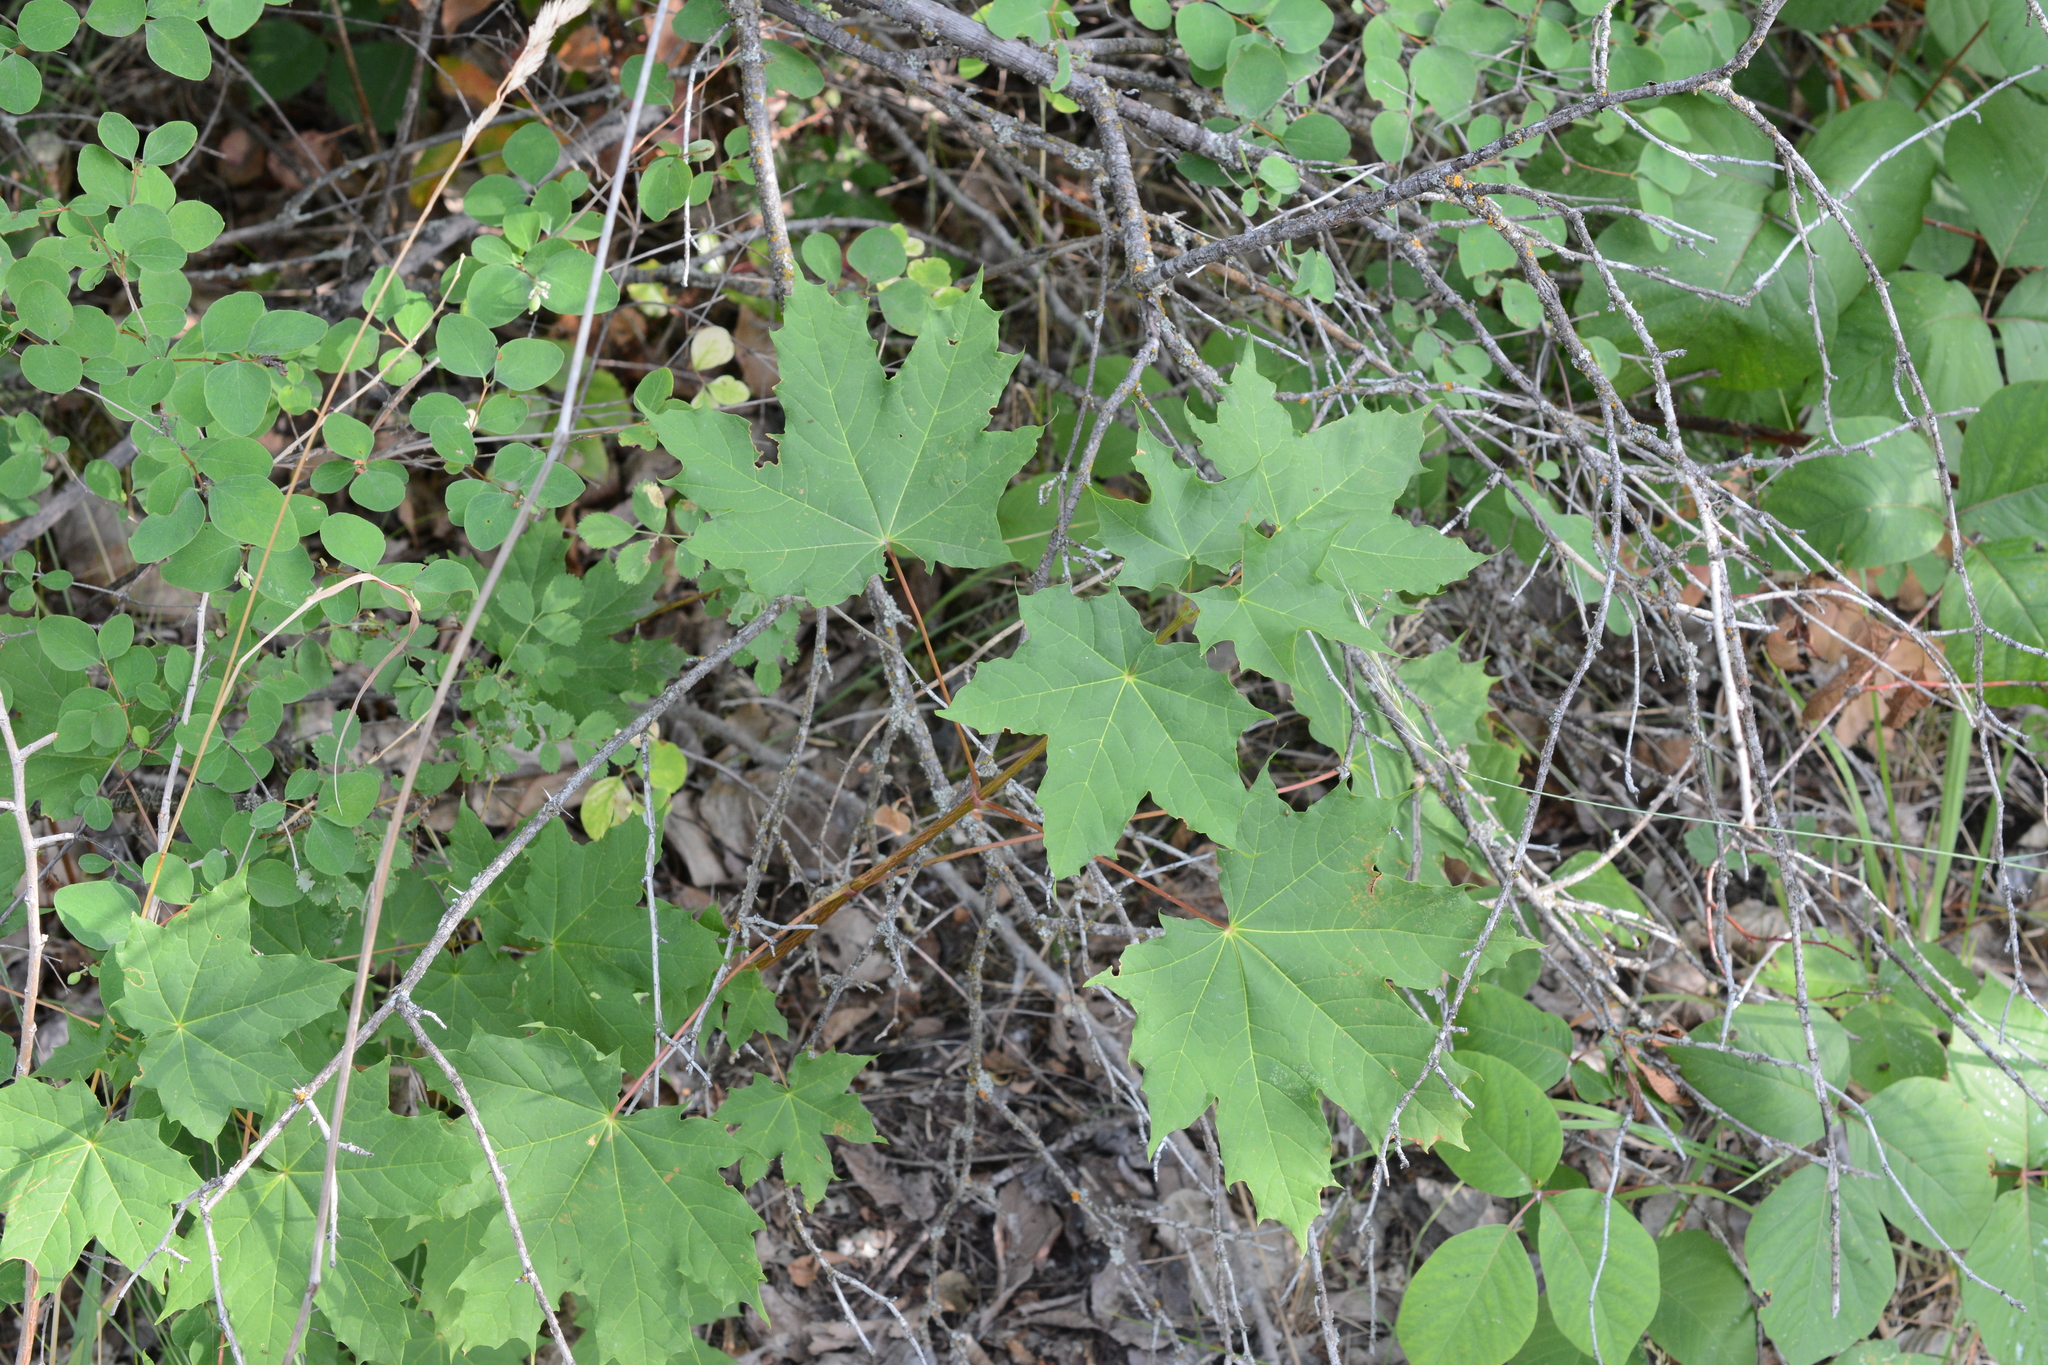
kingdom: Plantae
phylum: Tracheophyta
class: Magnoliopsida
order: Sapindales
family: Sapindaceae
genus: Acer
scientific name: Acer platanoides
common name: Norway maple
